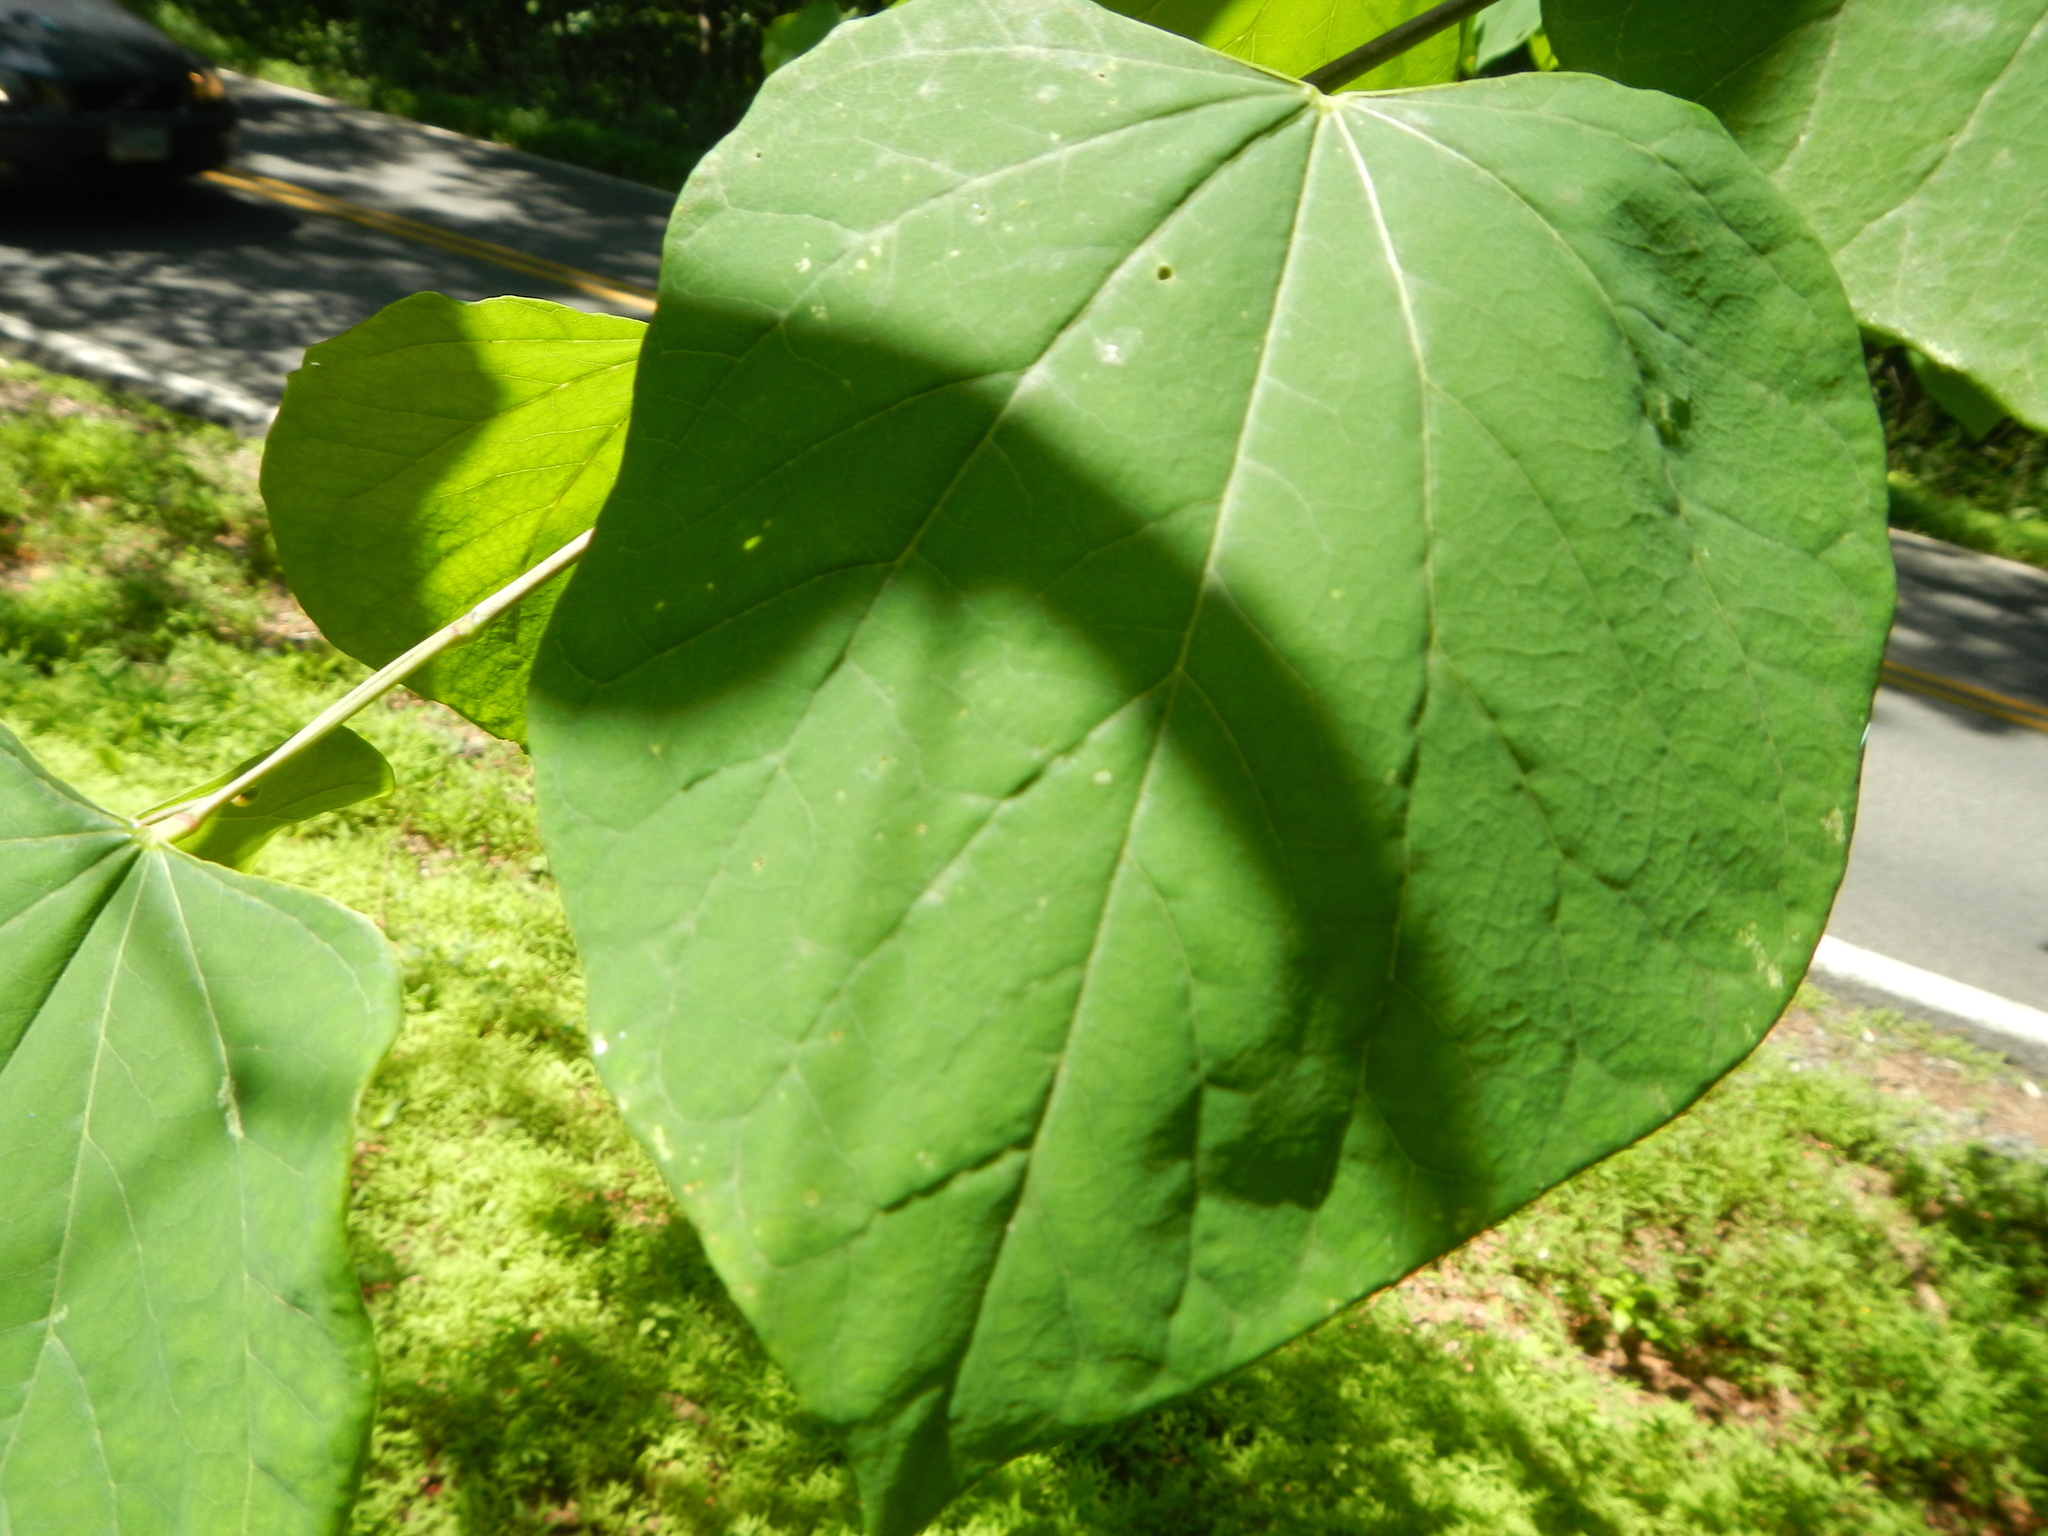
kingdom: Plantae
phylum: Tracheophyta
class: Magnoliopsida
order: Fabales
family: Fabaceae
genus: Cercis
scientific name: Cercis canadensis
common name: Eastern redbud
